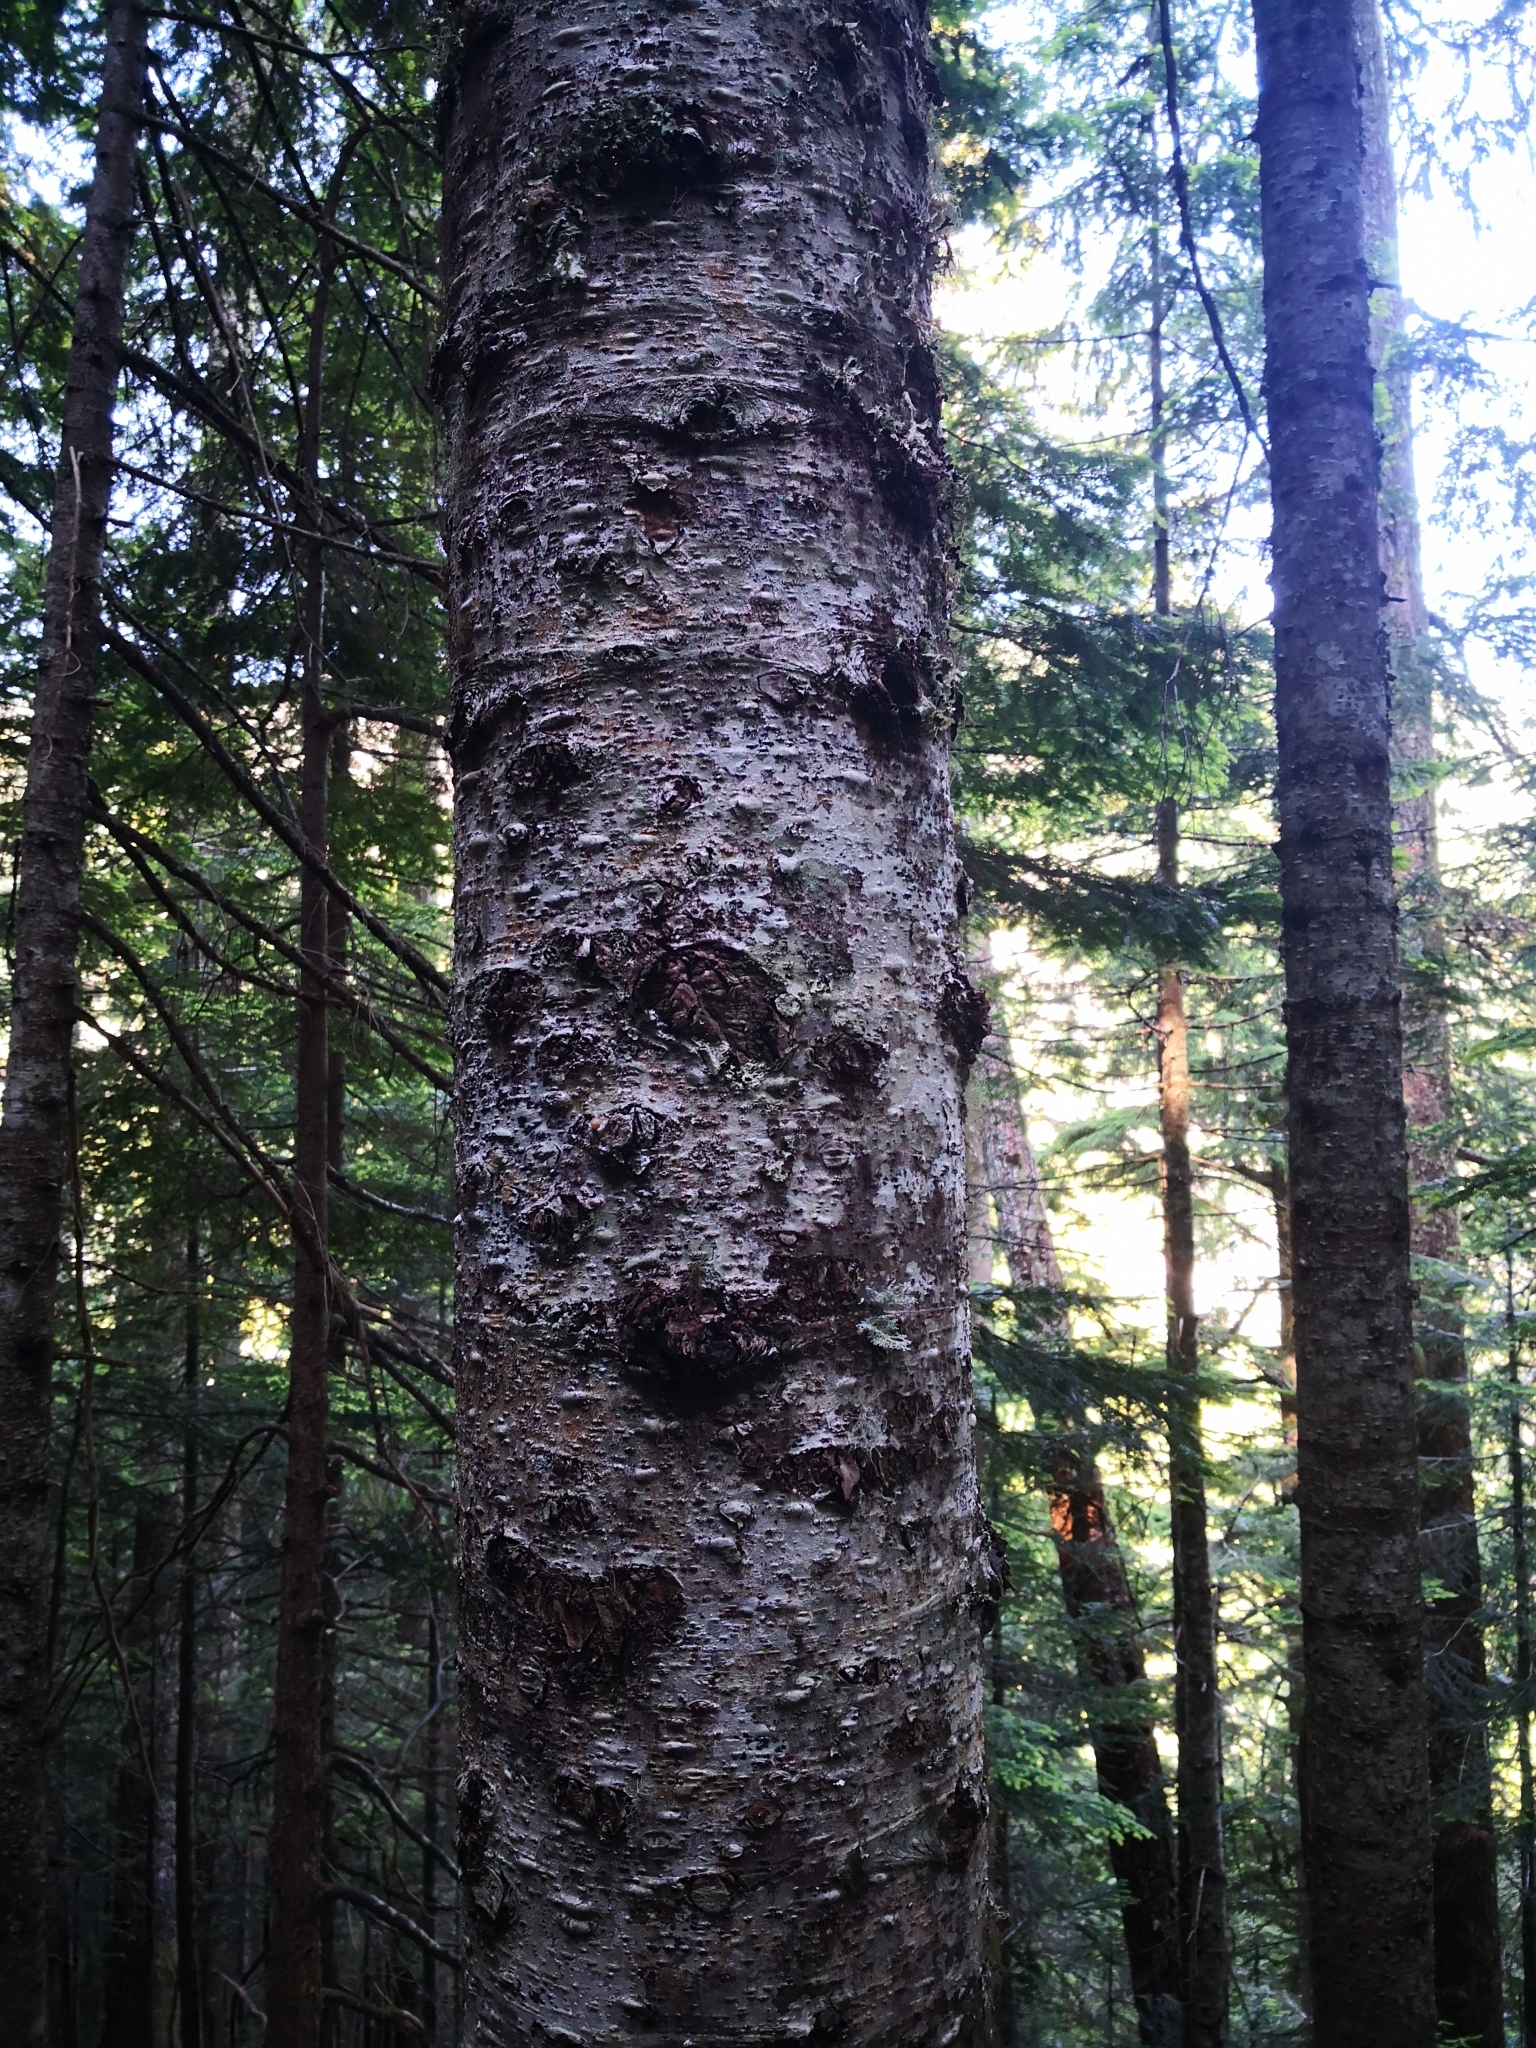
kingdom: Plantae
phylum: Tracheophyta
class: Pinopsida
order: Pinales
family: Pinaceae
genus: Abies
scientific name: Abies amabilis
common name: Pacific silver fir
